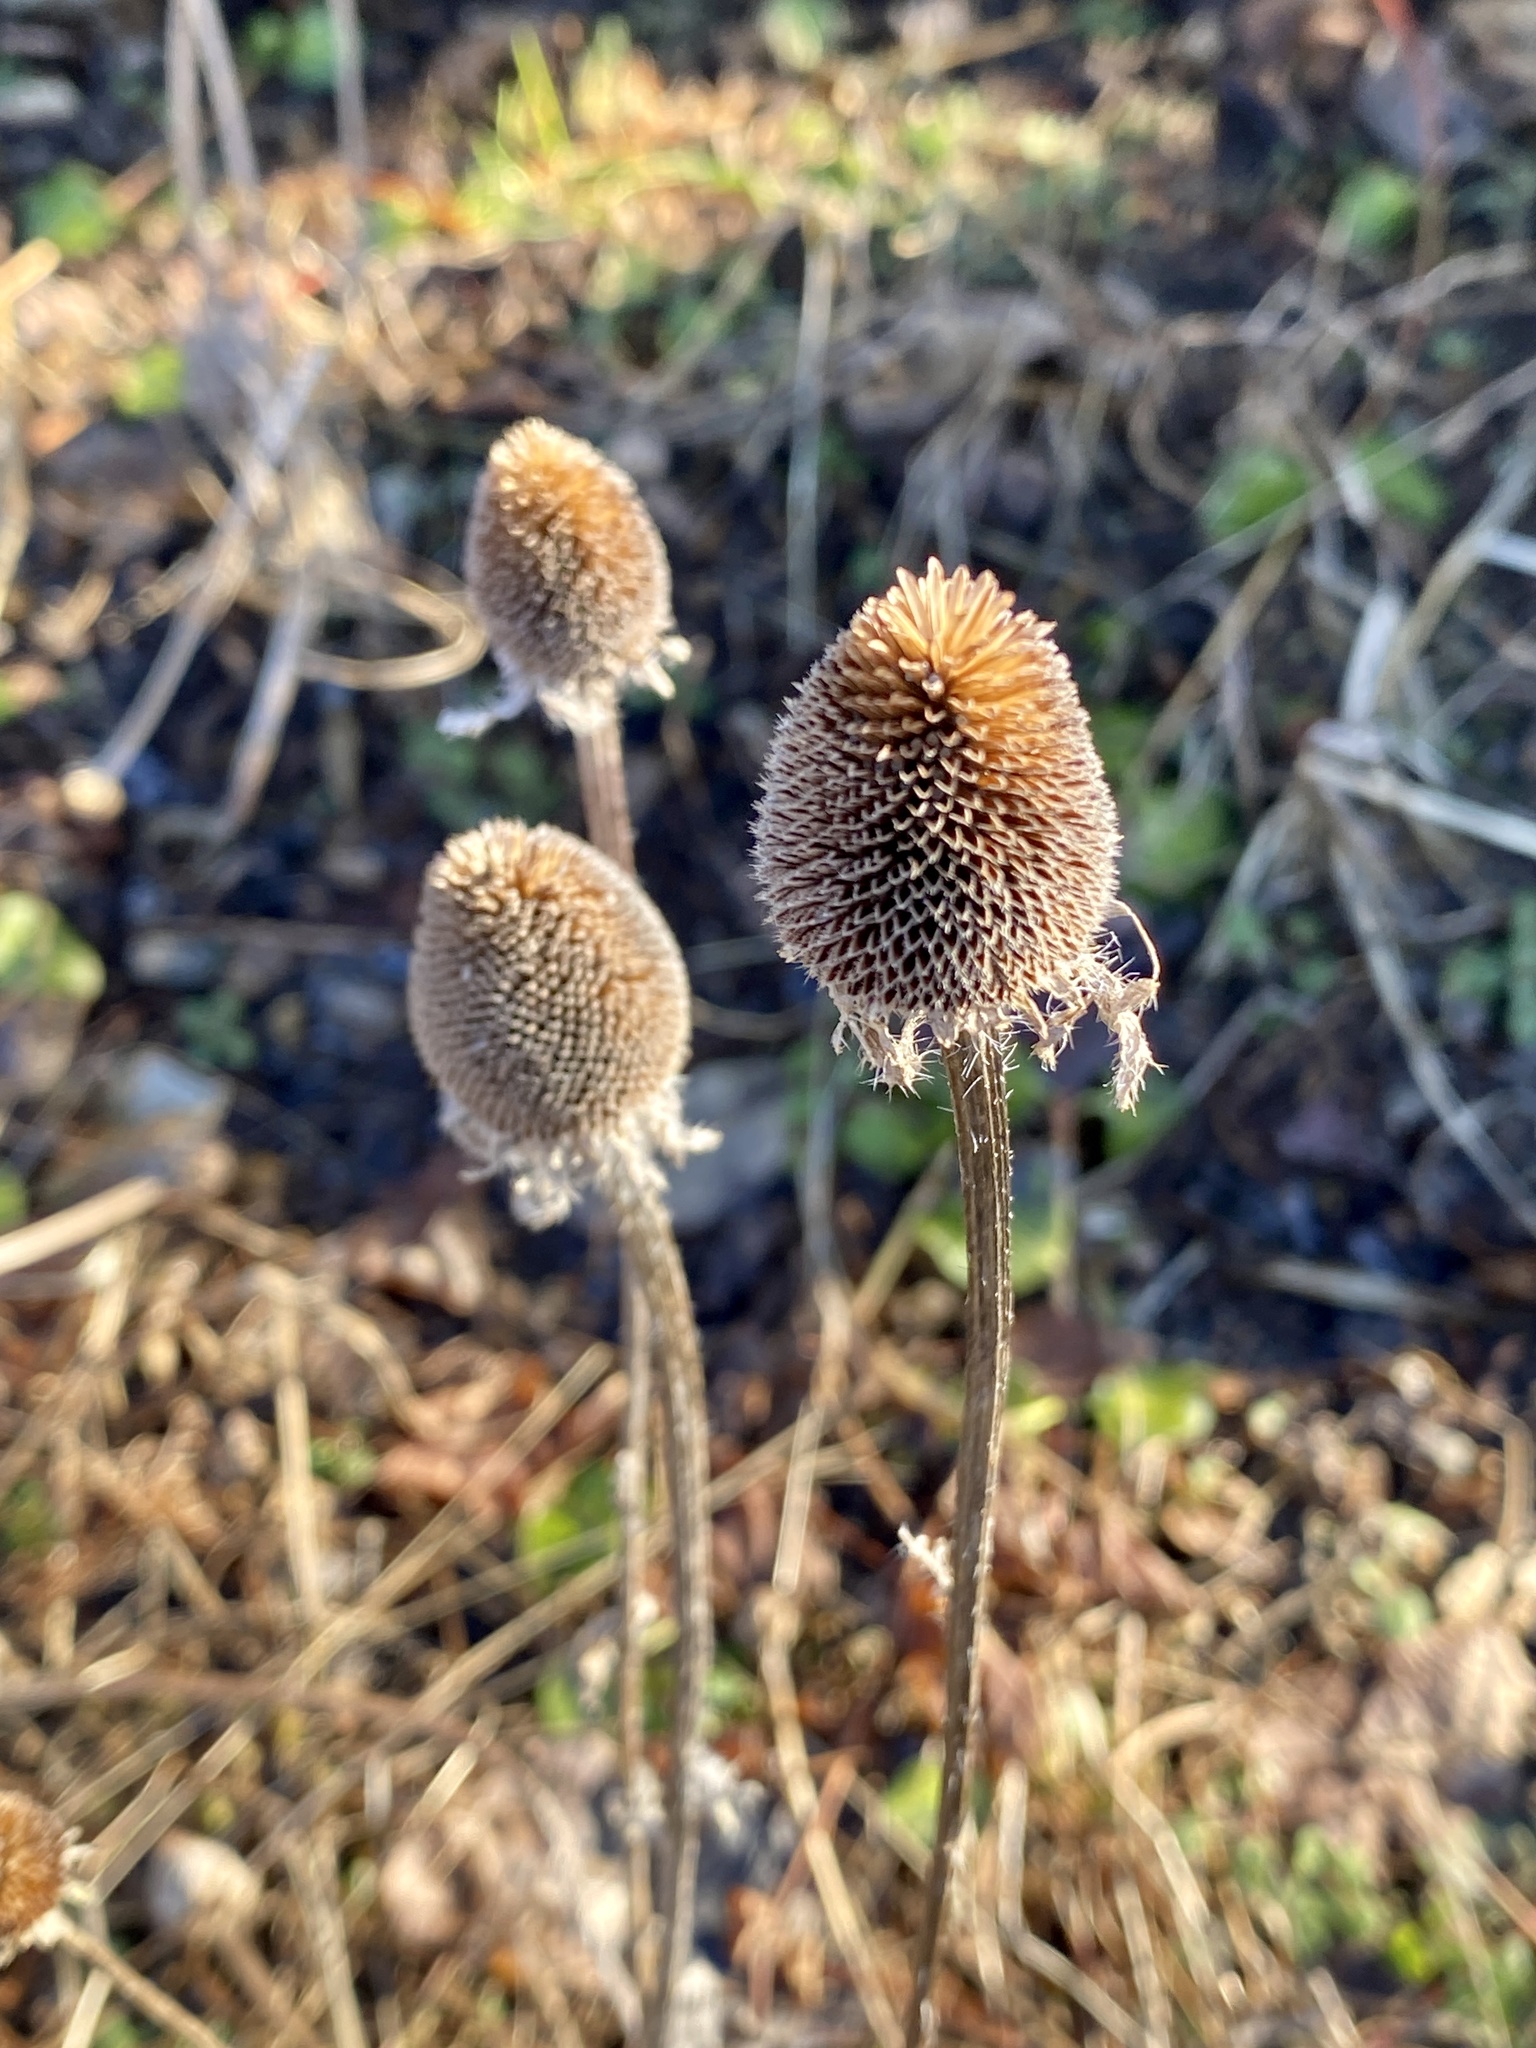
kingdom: Plantae
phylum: Tracheophyta
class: Magnoliopsida
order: Asterales
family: Asteraceae
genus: Rudbeckia
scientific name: Rudbeckia hirta
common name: Black-eyed-susan
